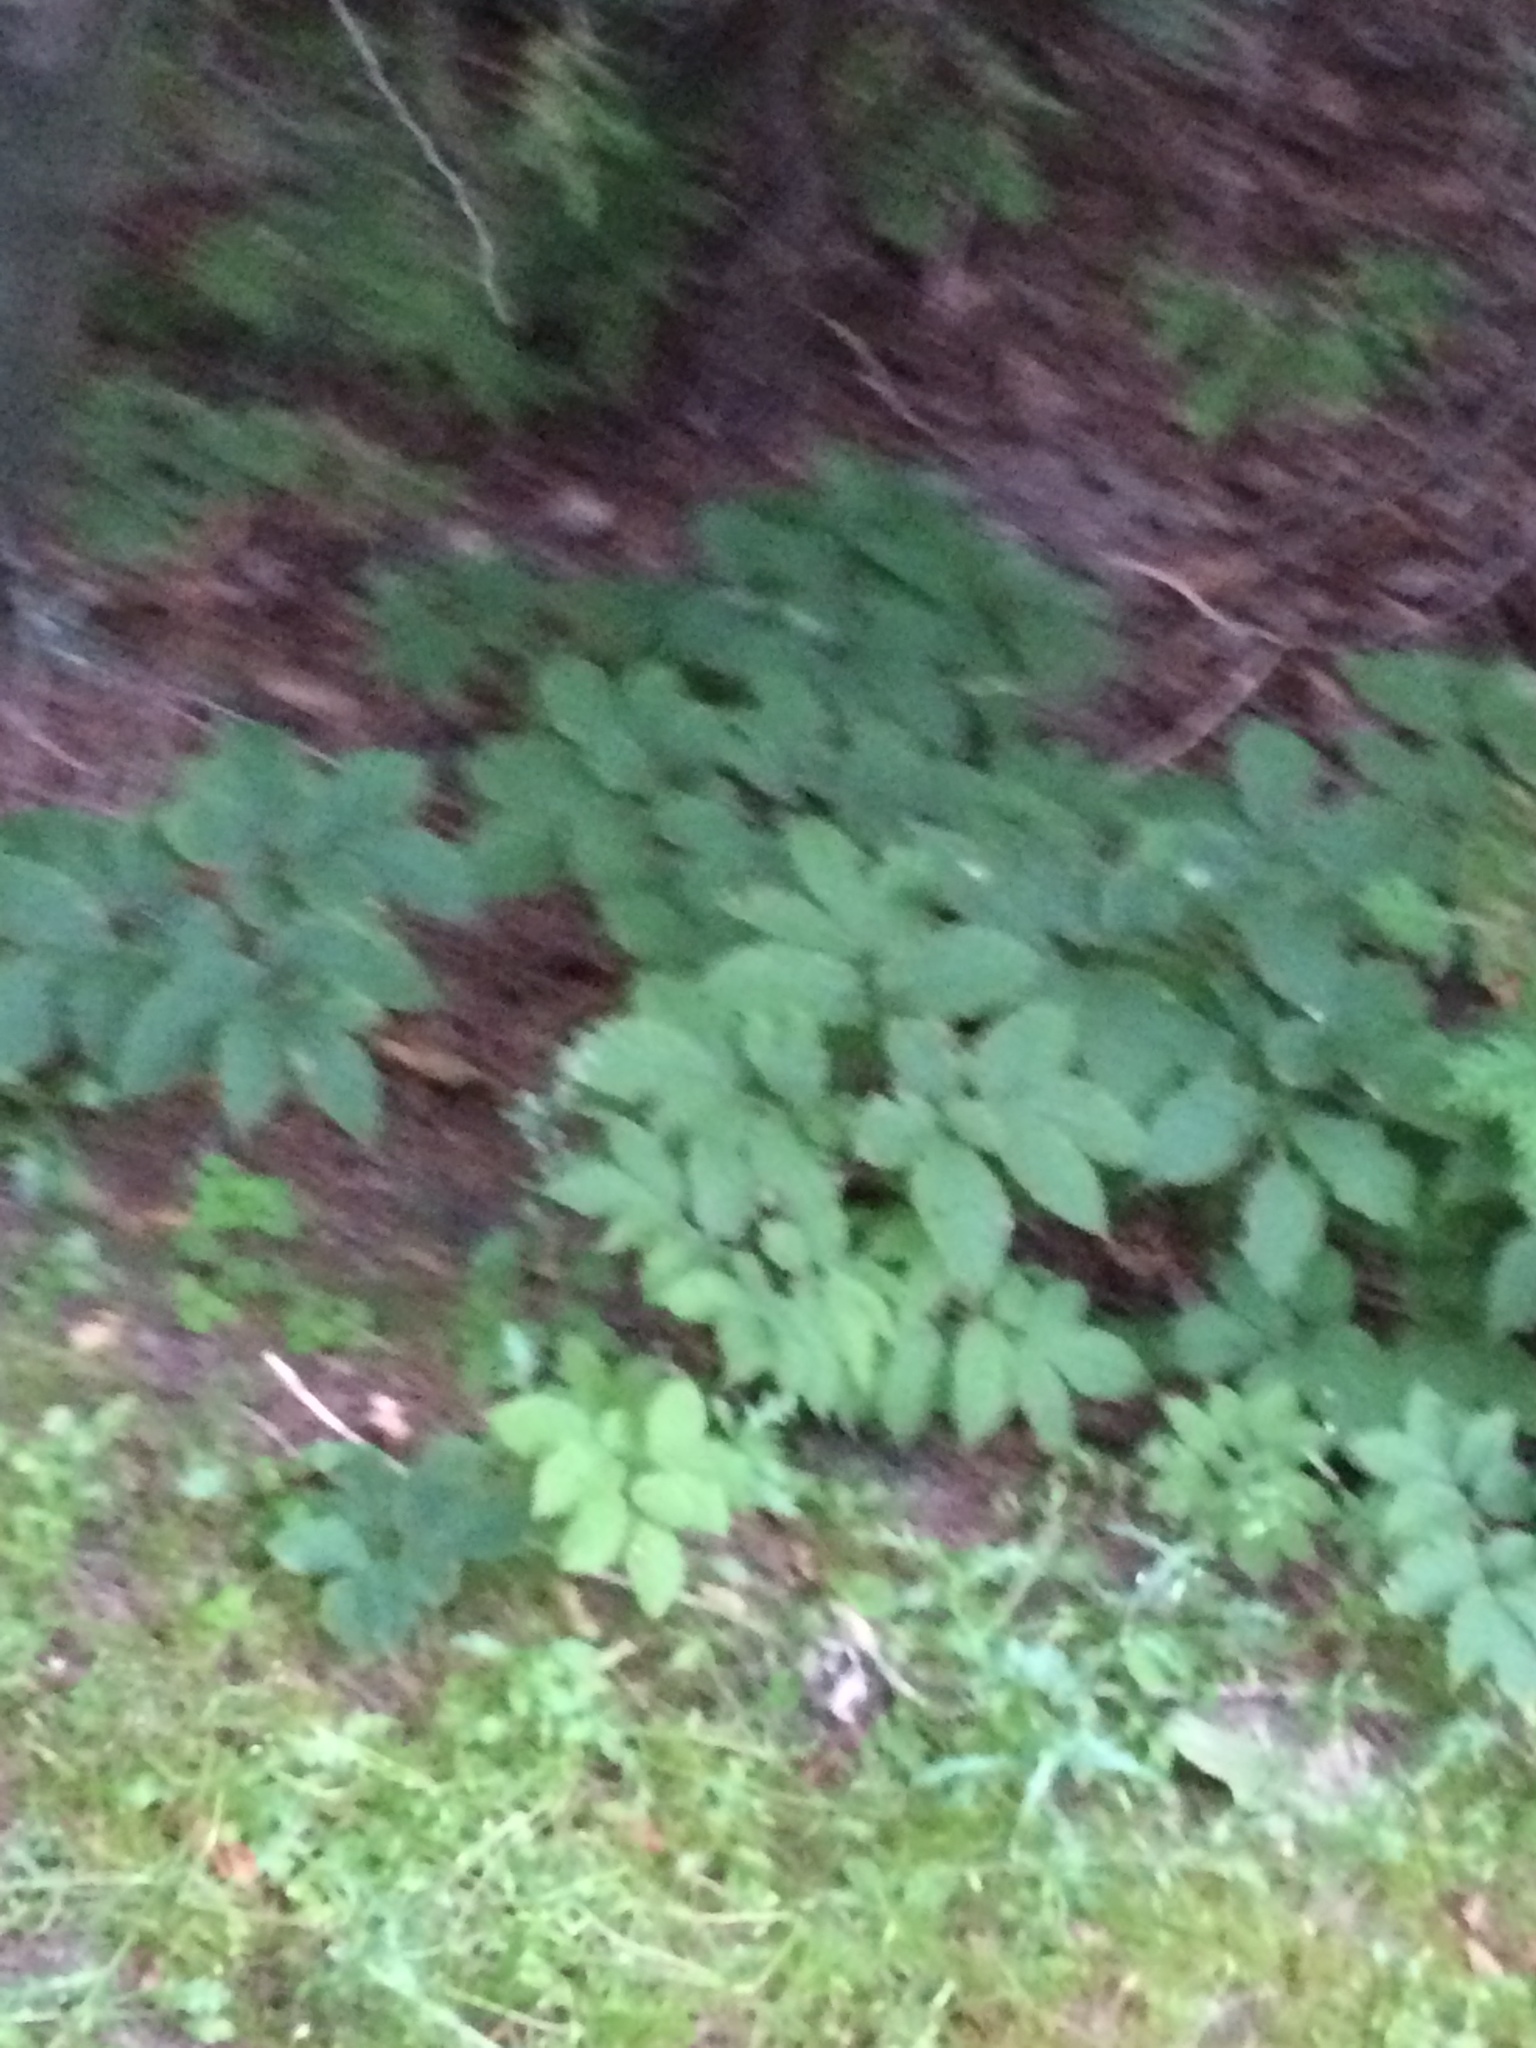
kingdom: Plantae
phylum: Tracheophyta
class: Magnoliopsida
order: Apiales
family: Araliaceae
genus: Aralia
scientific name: Aralia nudicaulis
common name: Wild sarsaparilla
